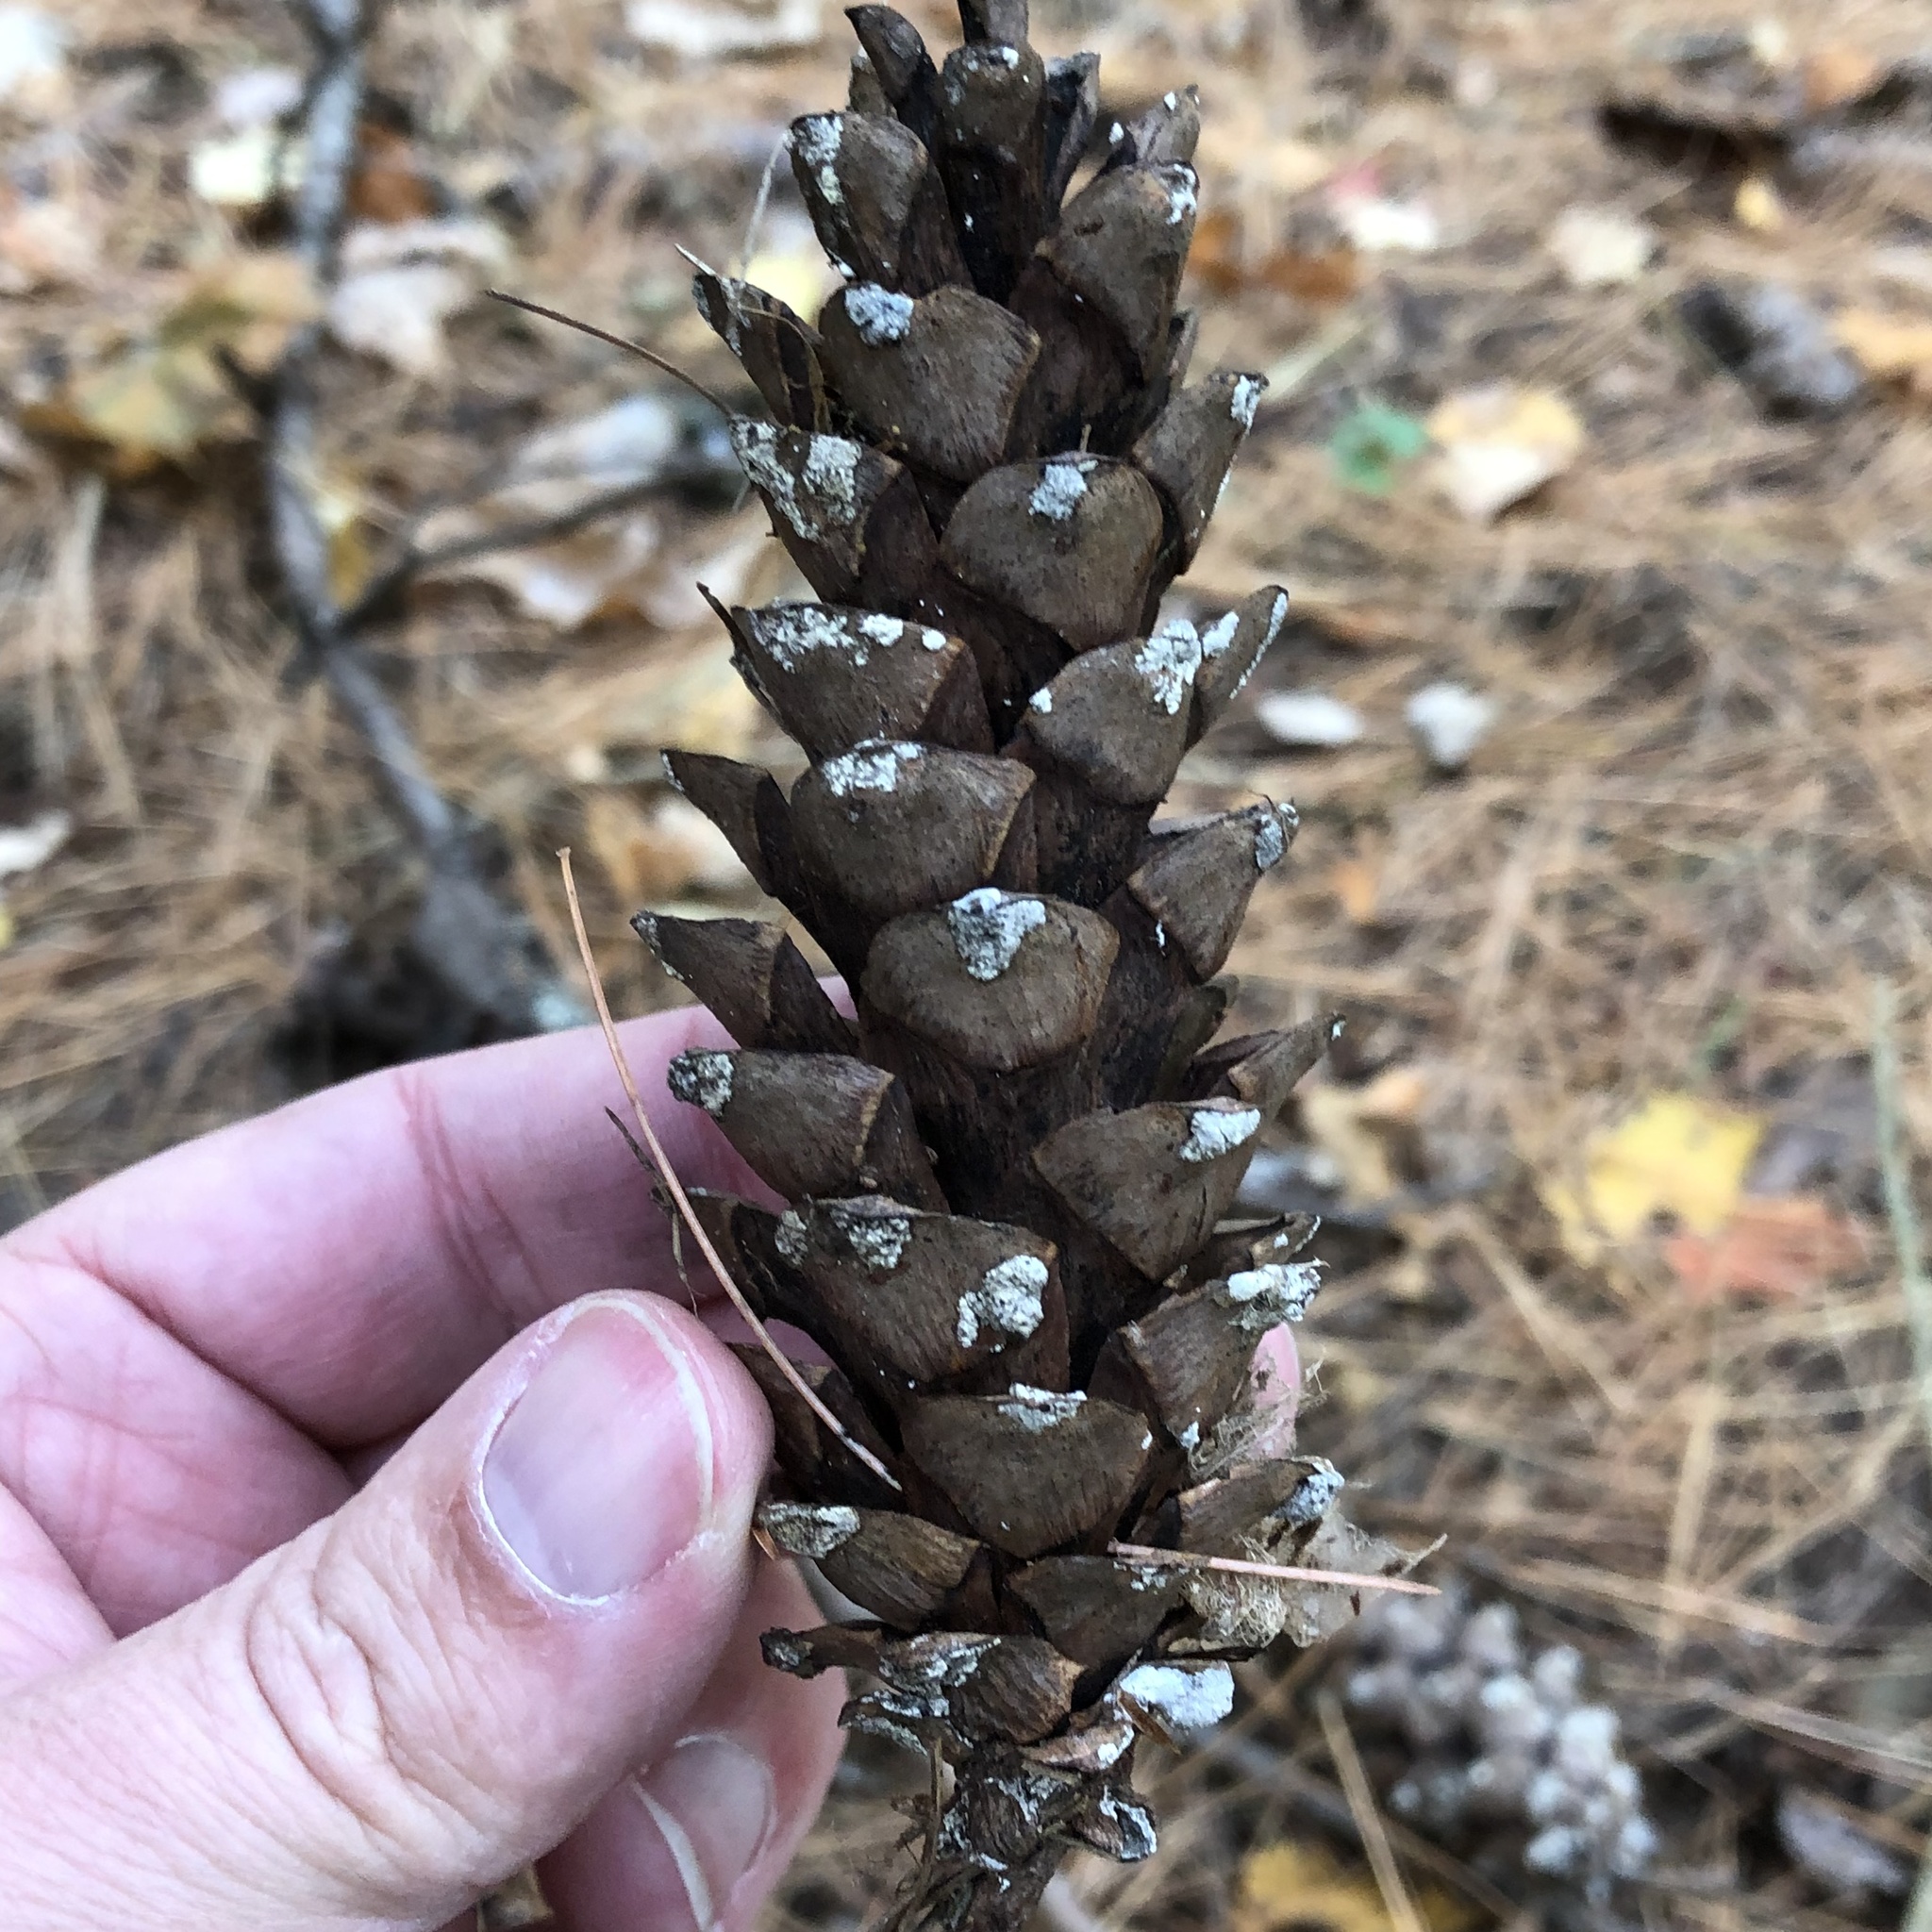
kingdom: Plantae
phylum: Tracheophyta
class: Pinopsida
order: Pinales
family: Pinaceae
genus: Pinus
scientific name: Pinus strobus
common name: Weymouth pine
